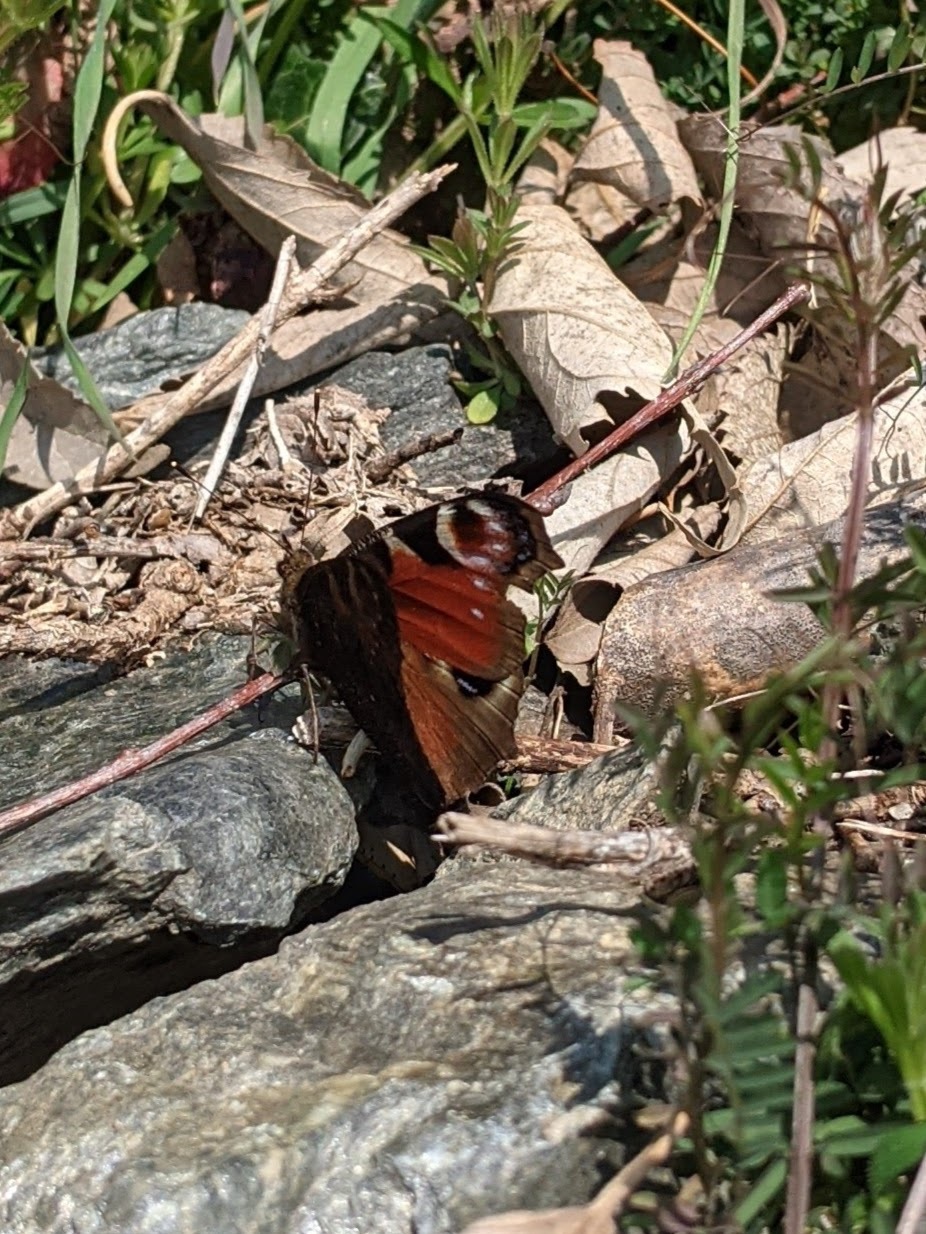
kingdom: Animalia
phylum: Arthropoda
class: Insecta
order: Lepidoptera
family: Nymphalidae
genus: Aglais
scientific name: Aglais io
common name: Peacock
